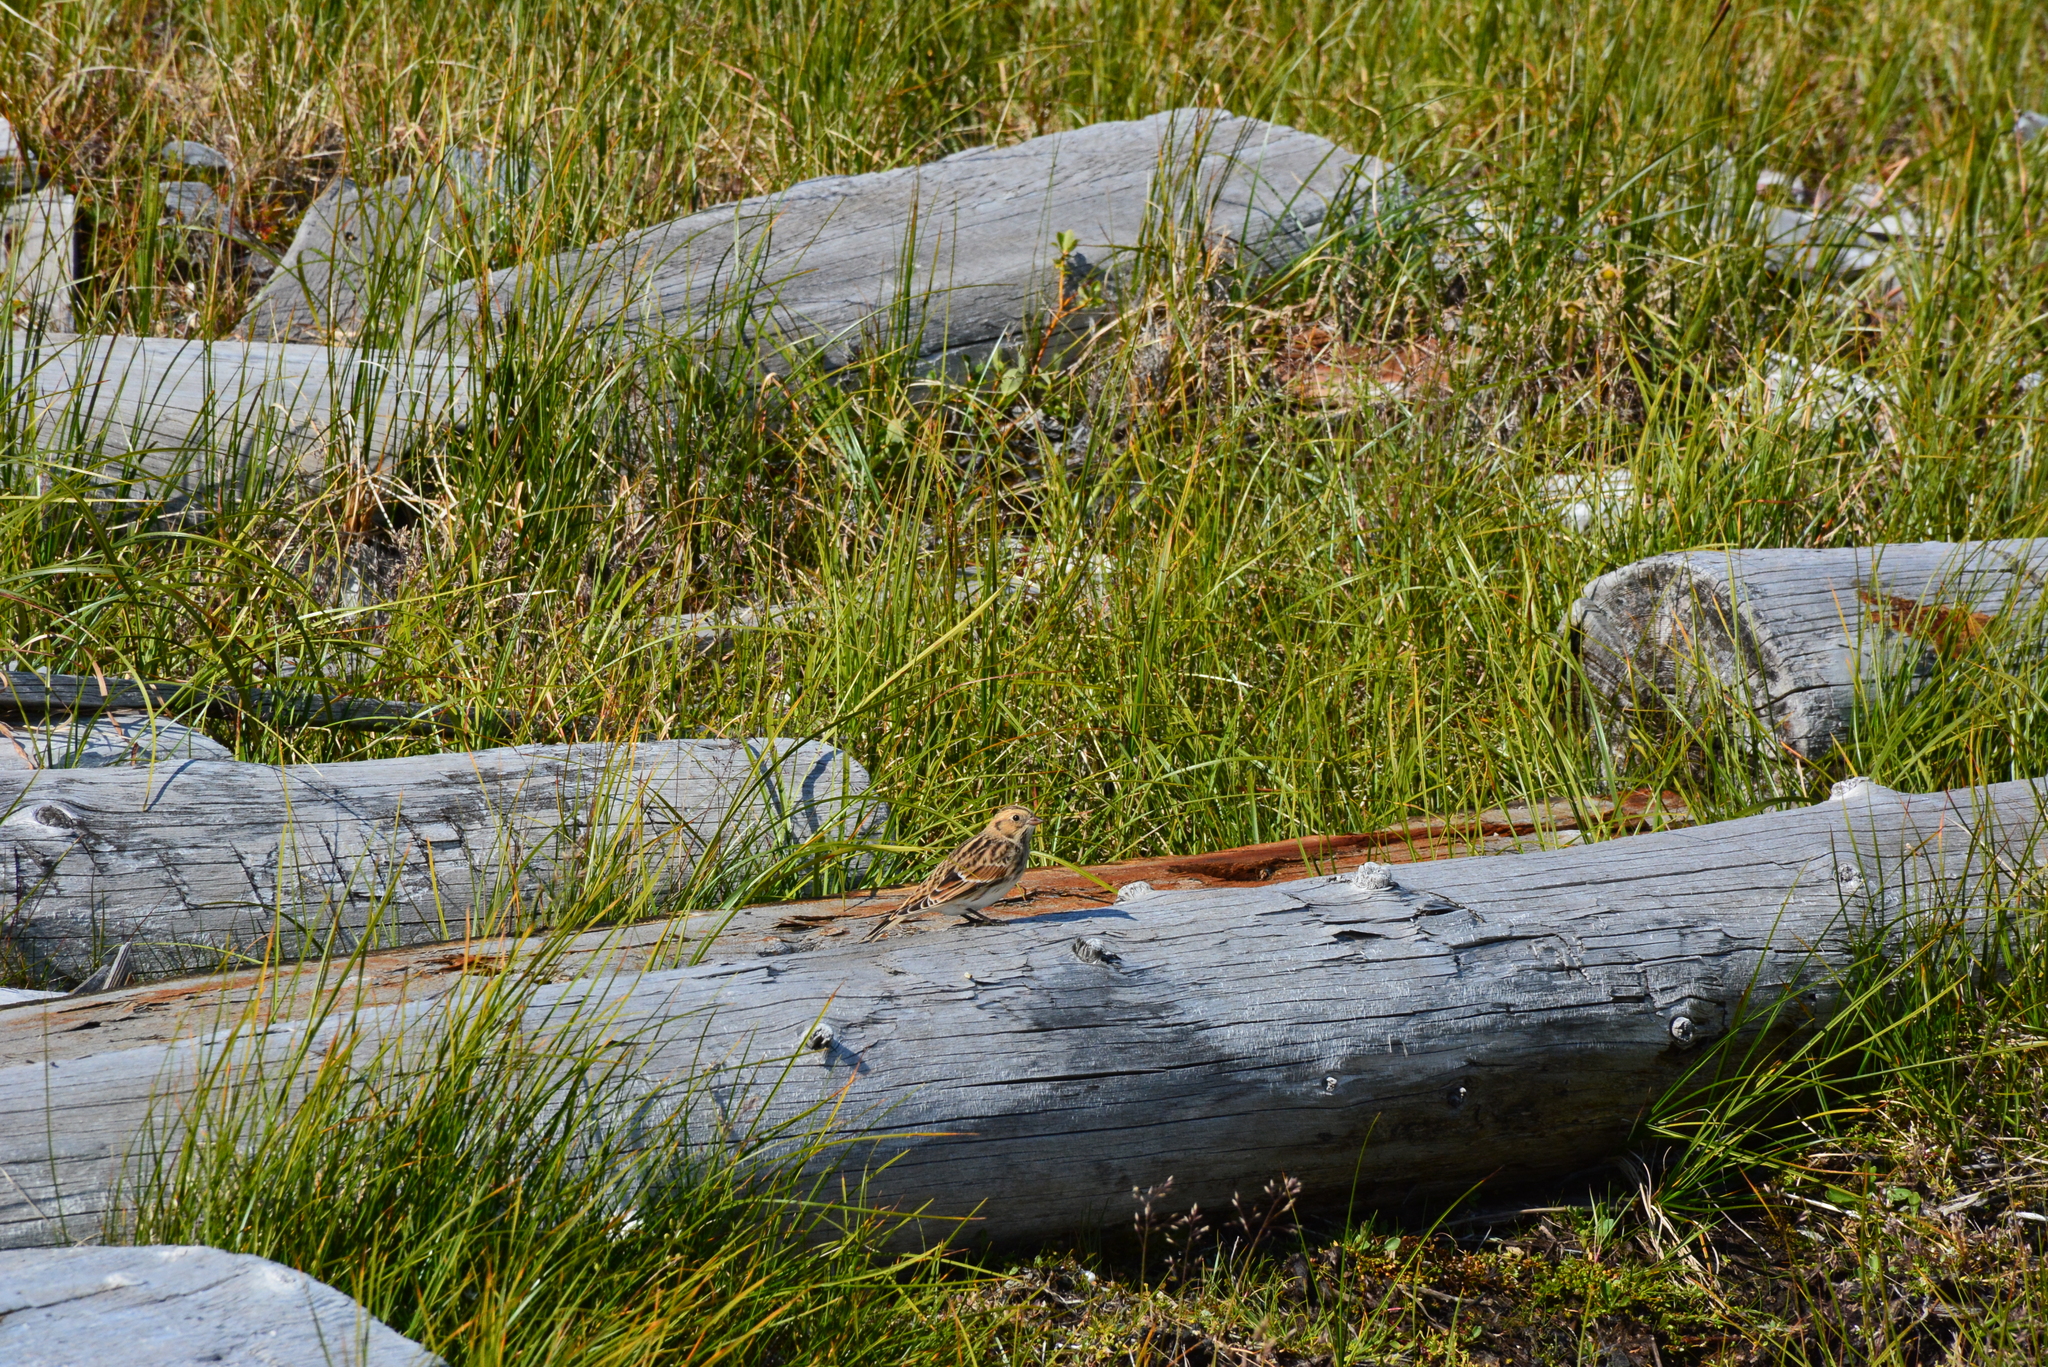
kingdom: Animalia
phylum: Chordata
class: Aves
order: Passeriformes
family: Calcariidae
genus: Calcarius
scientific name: Calcarius lapponicus
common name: Lapland longspur
